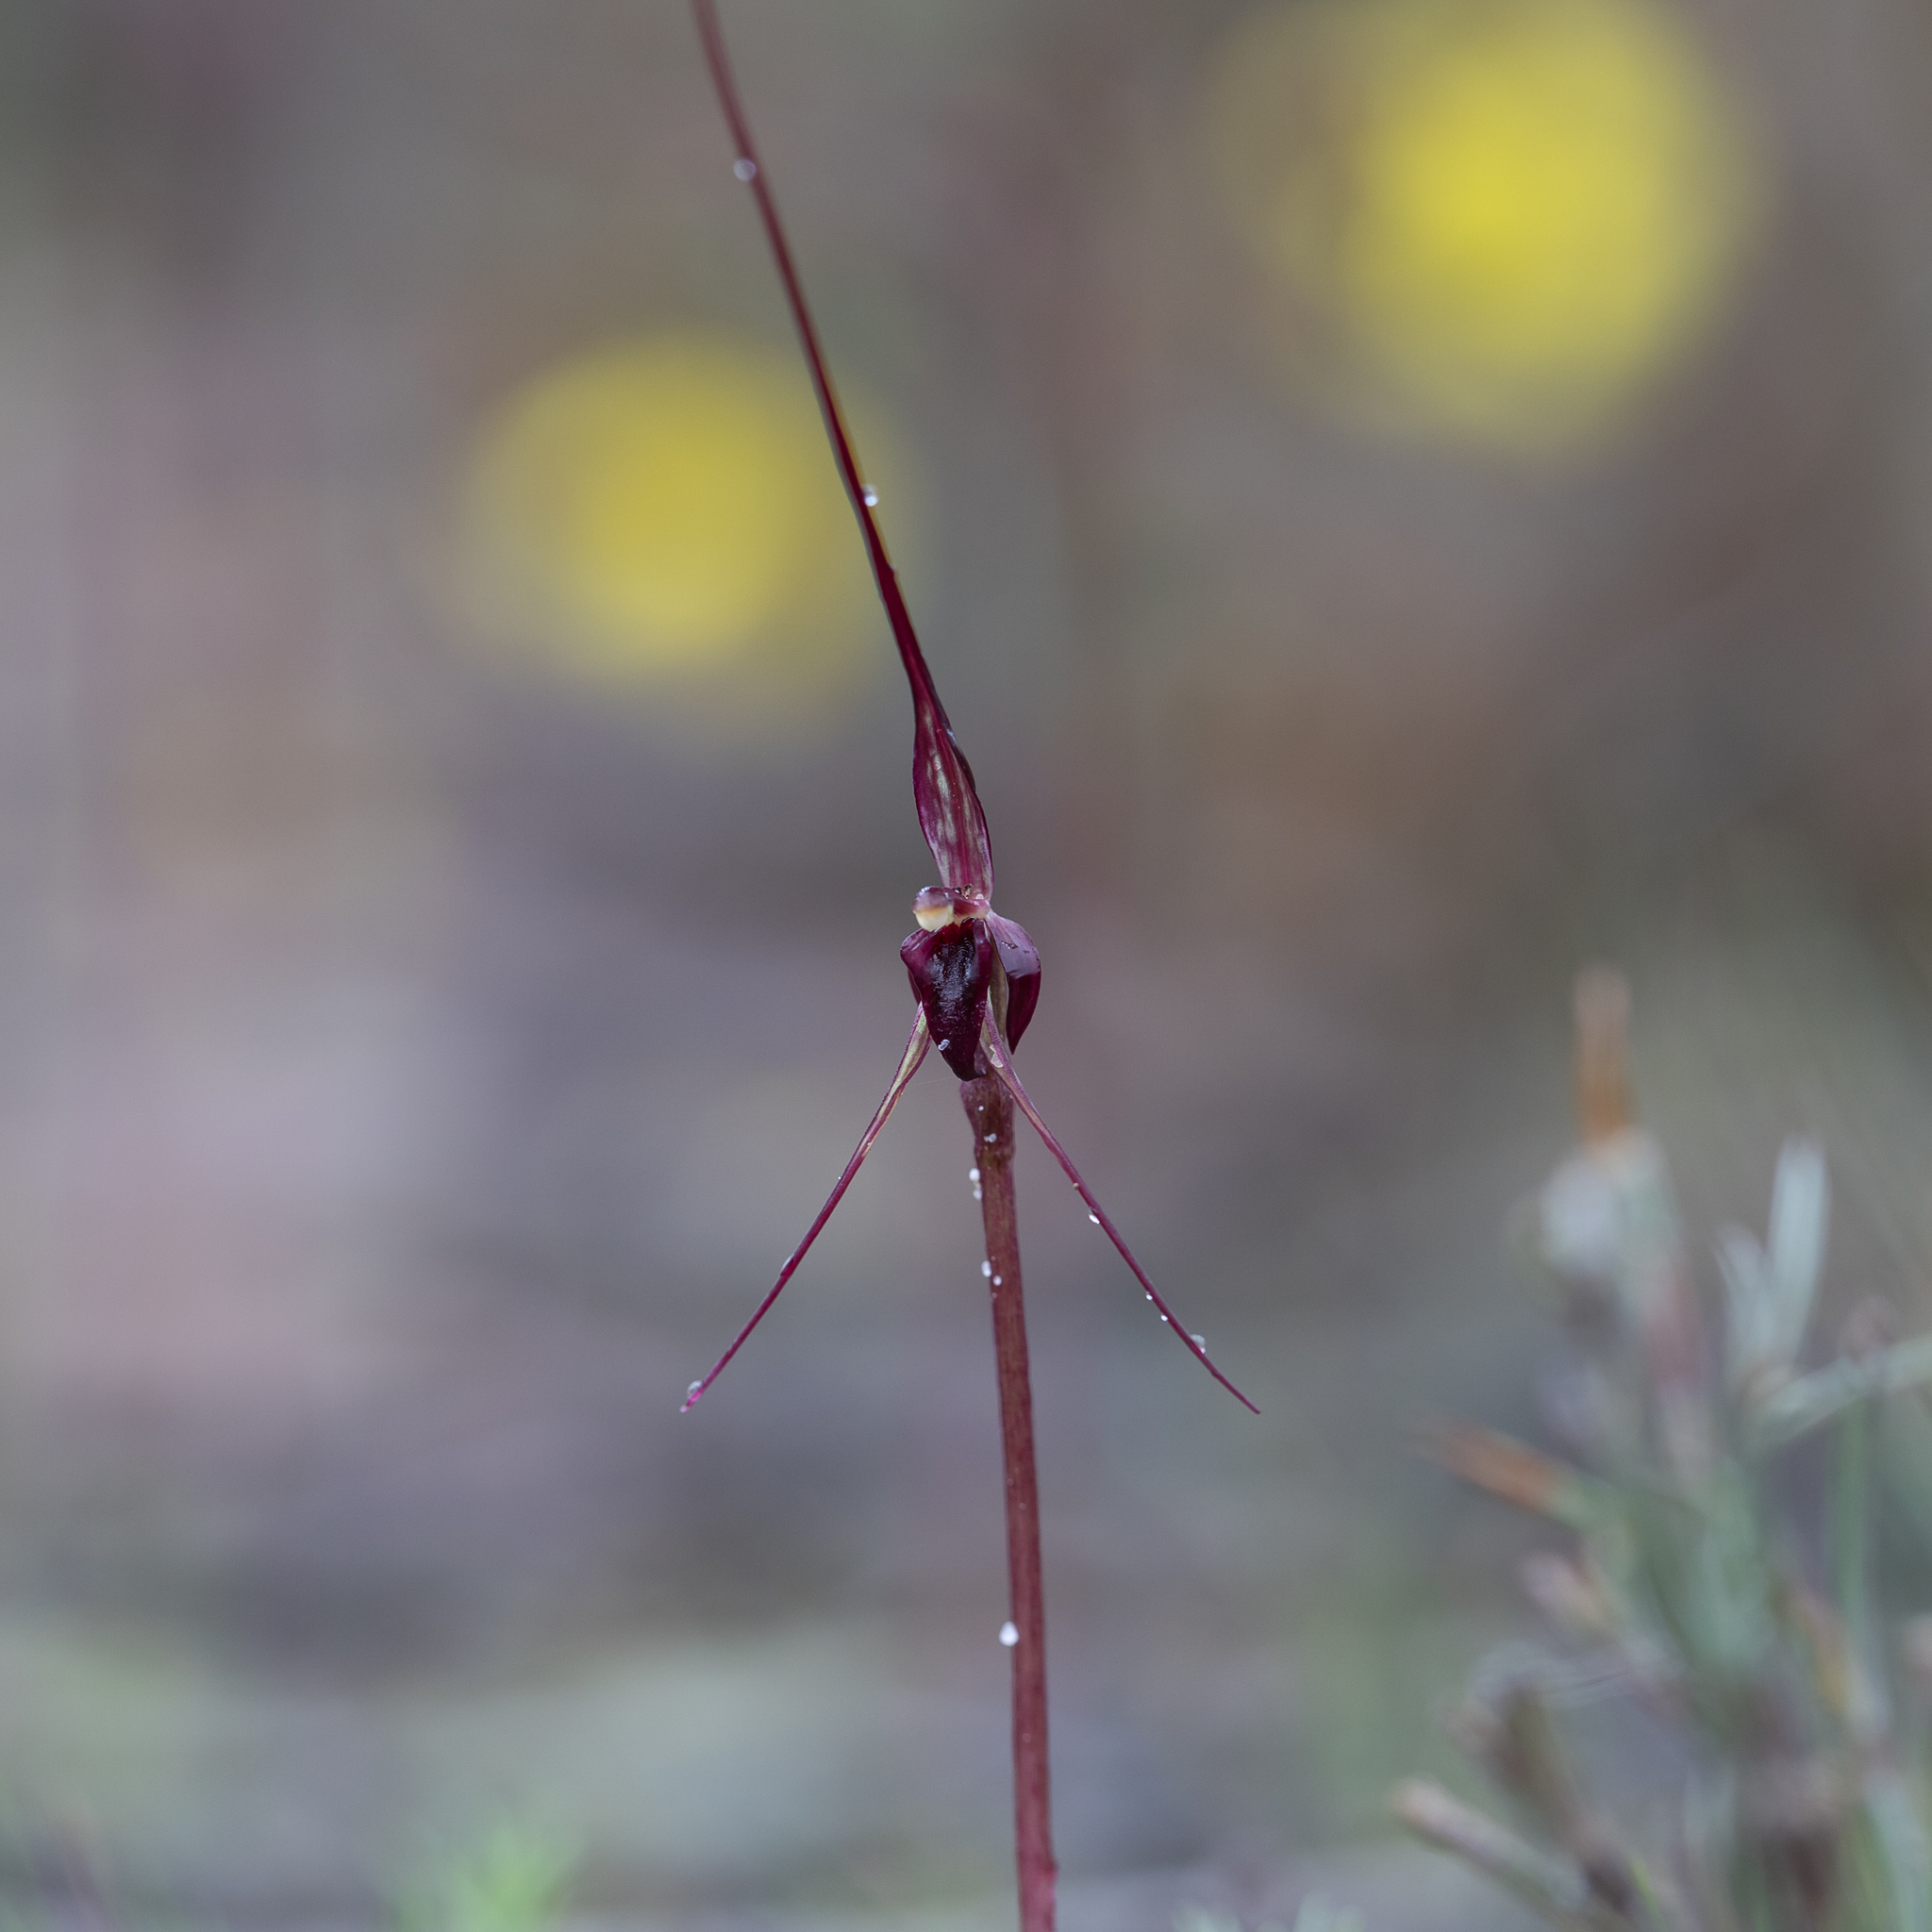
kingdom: Plantae
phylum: Tracheophyta
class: Liliopsida
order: Asparagales
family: Orchidaceae
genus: Acianthus
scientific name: Acianthus caudatus
